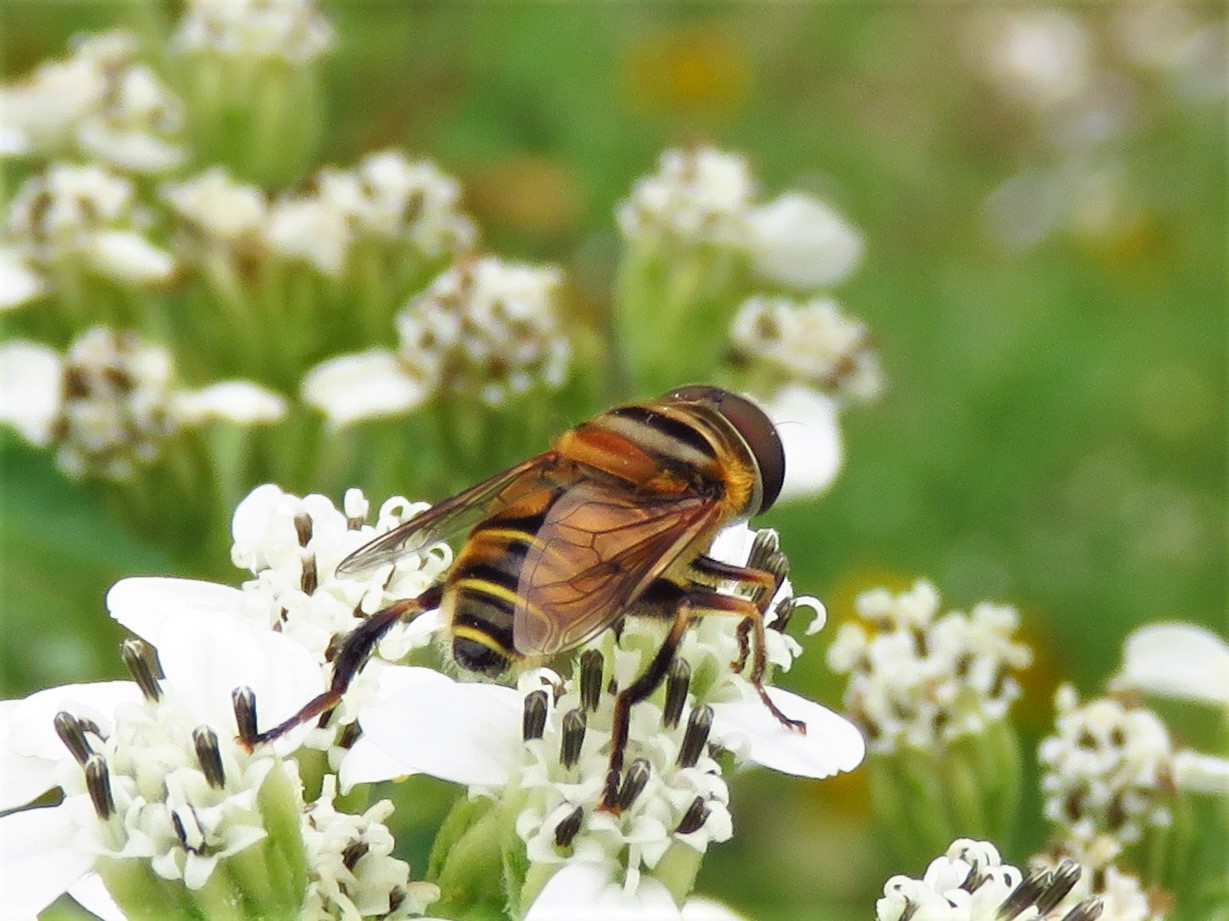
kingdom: Animalia
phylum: Arthropoda
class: Insecta
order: Diptera
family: Syrphidae
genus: Palpada
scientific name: Palpada vinetorum
